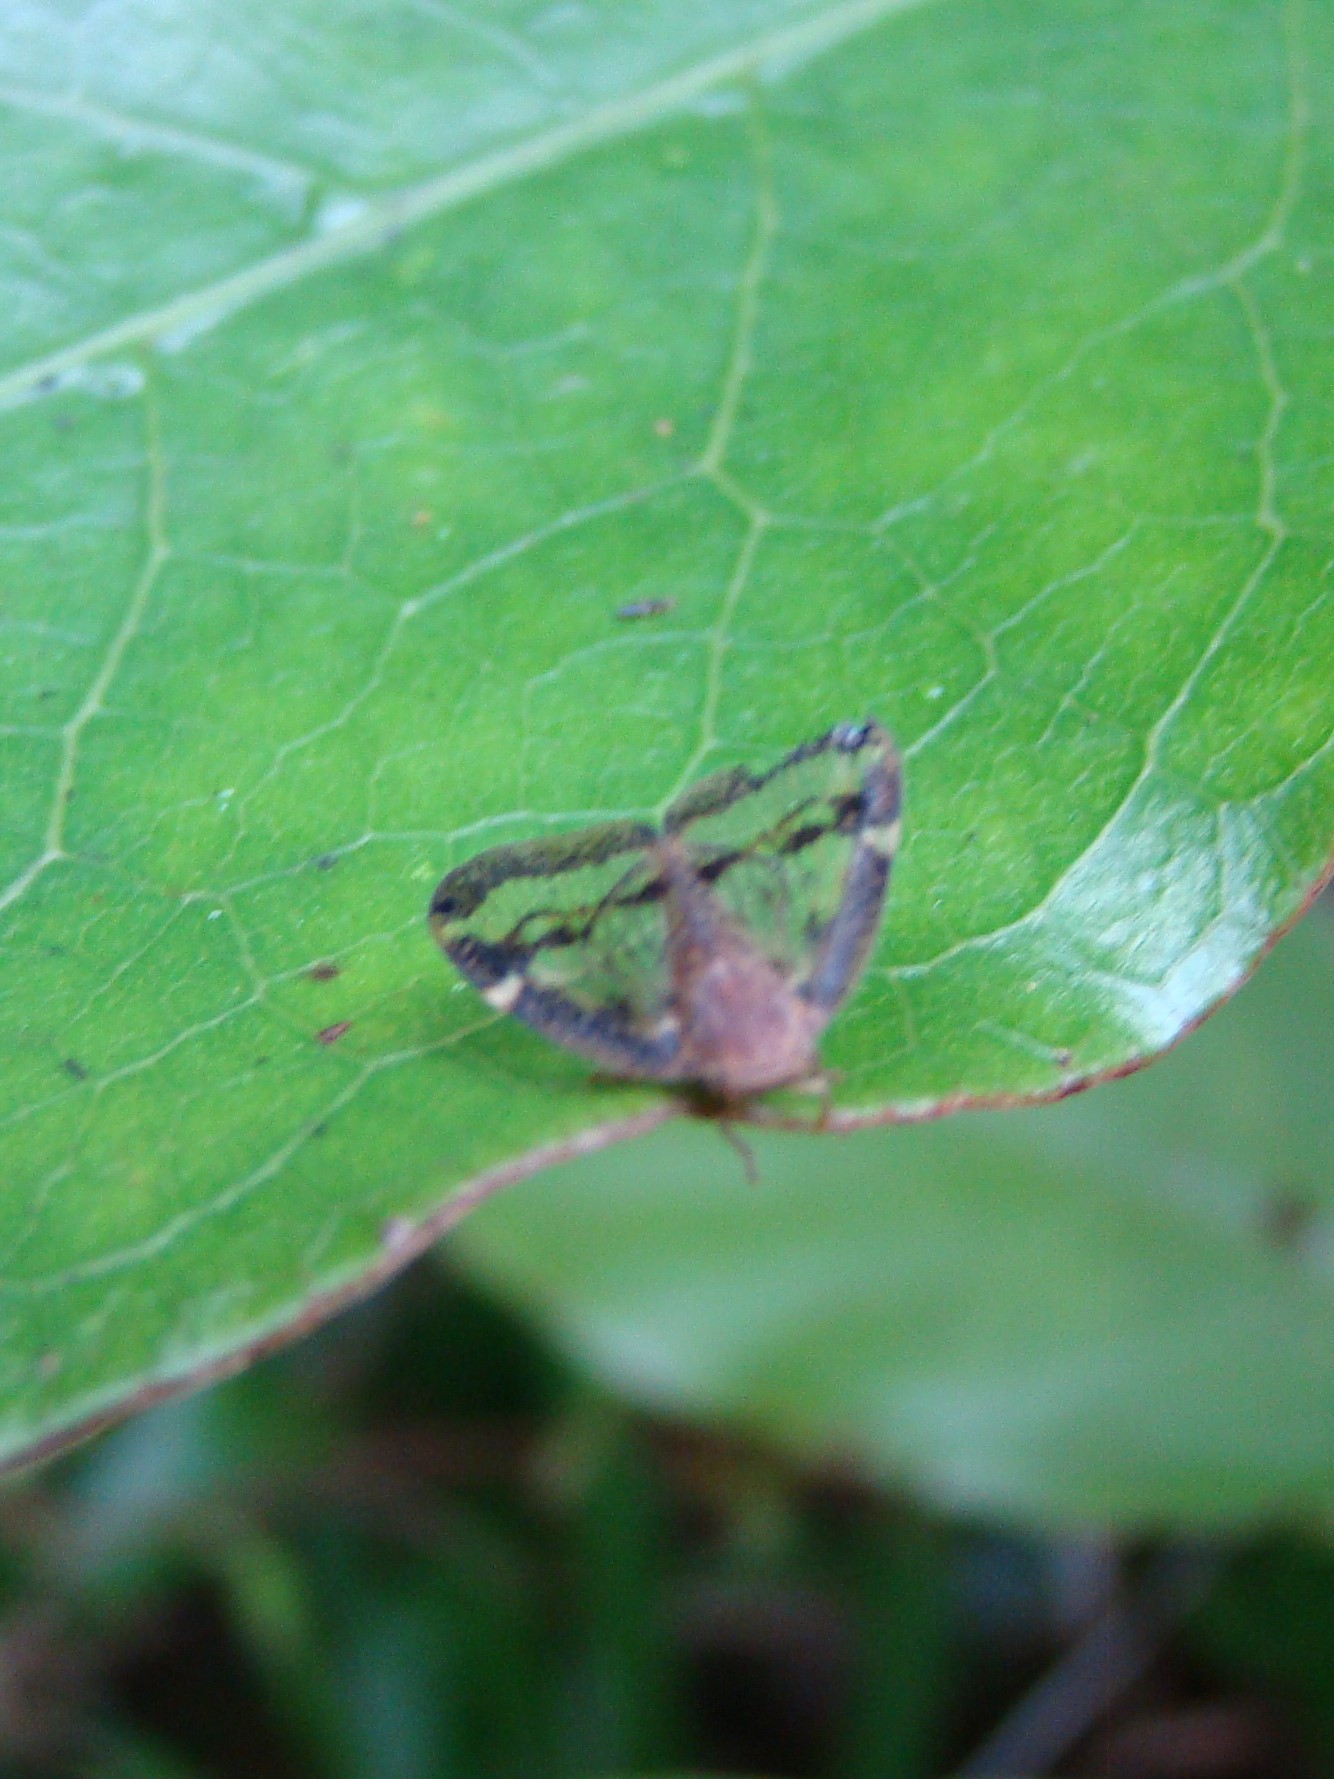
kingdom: Animalia
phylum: Arthropoda
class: Insecta
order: Hemiptera
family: Ricaniidae
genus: Scolypopa
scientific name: Scolypopa australis
